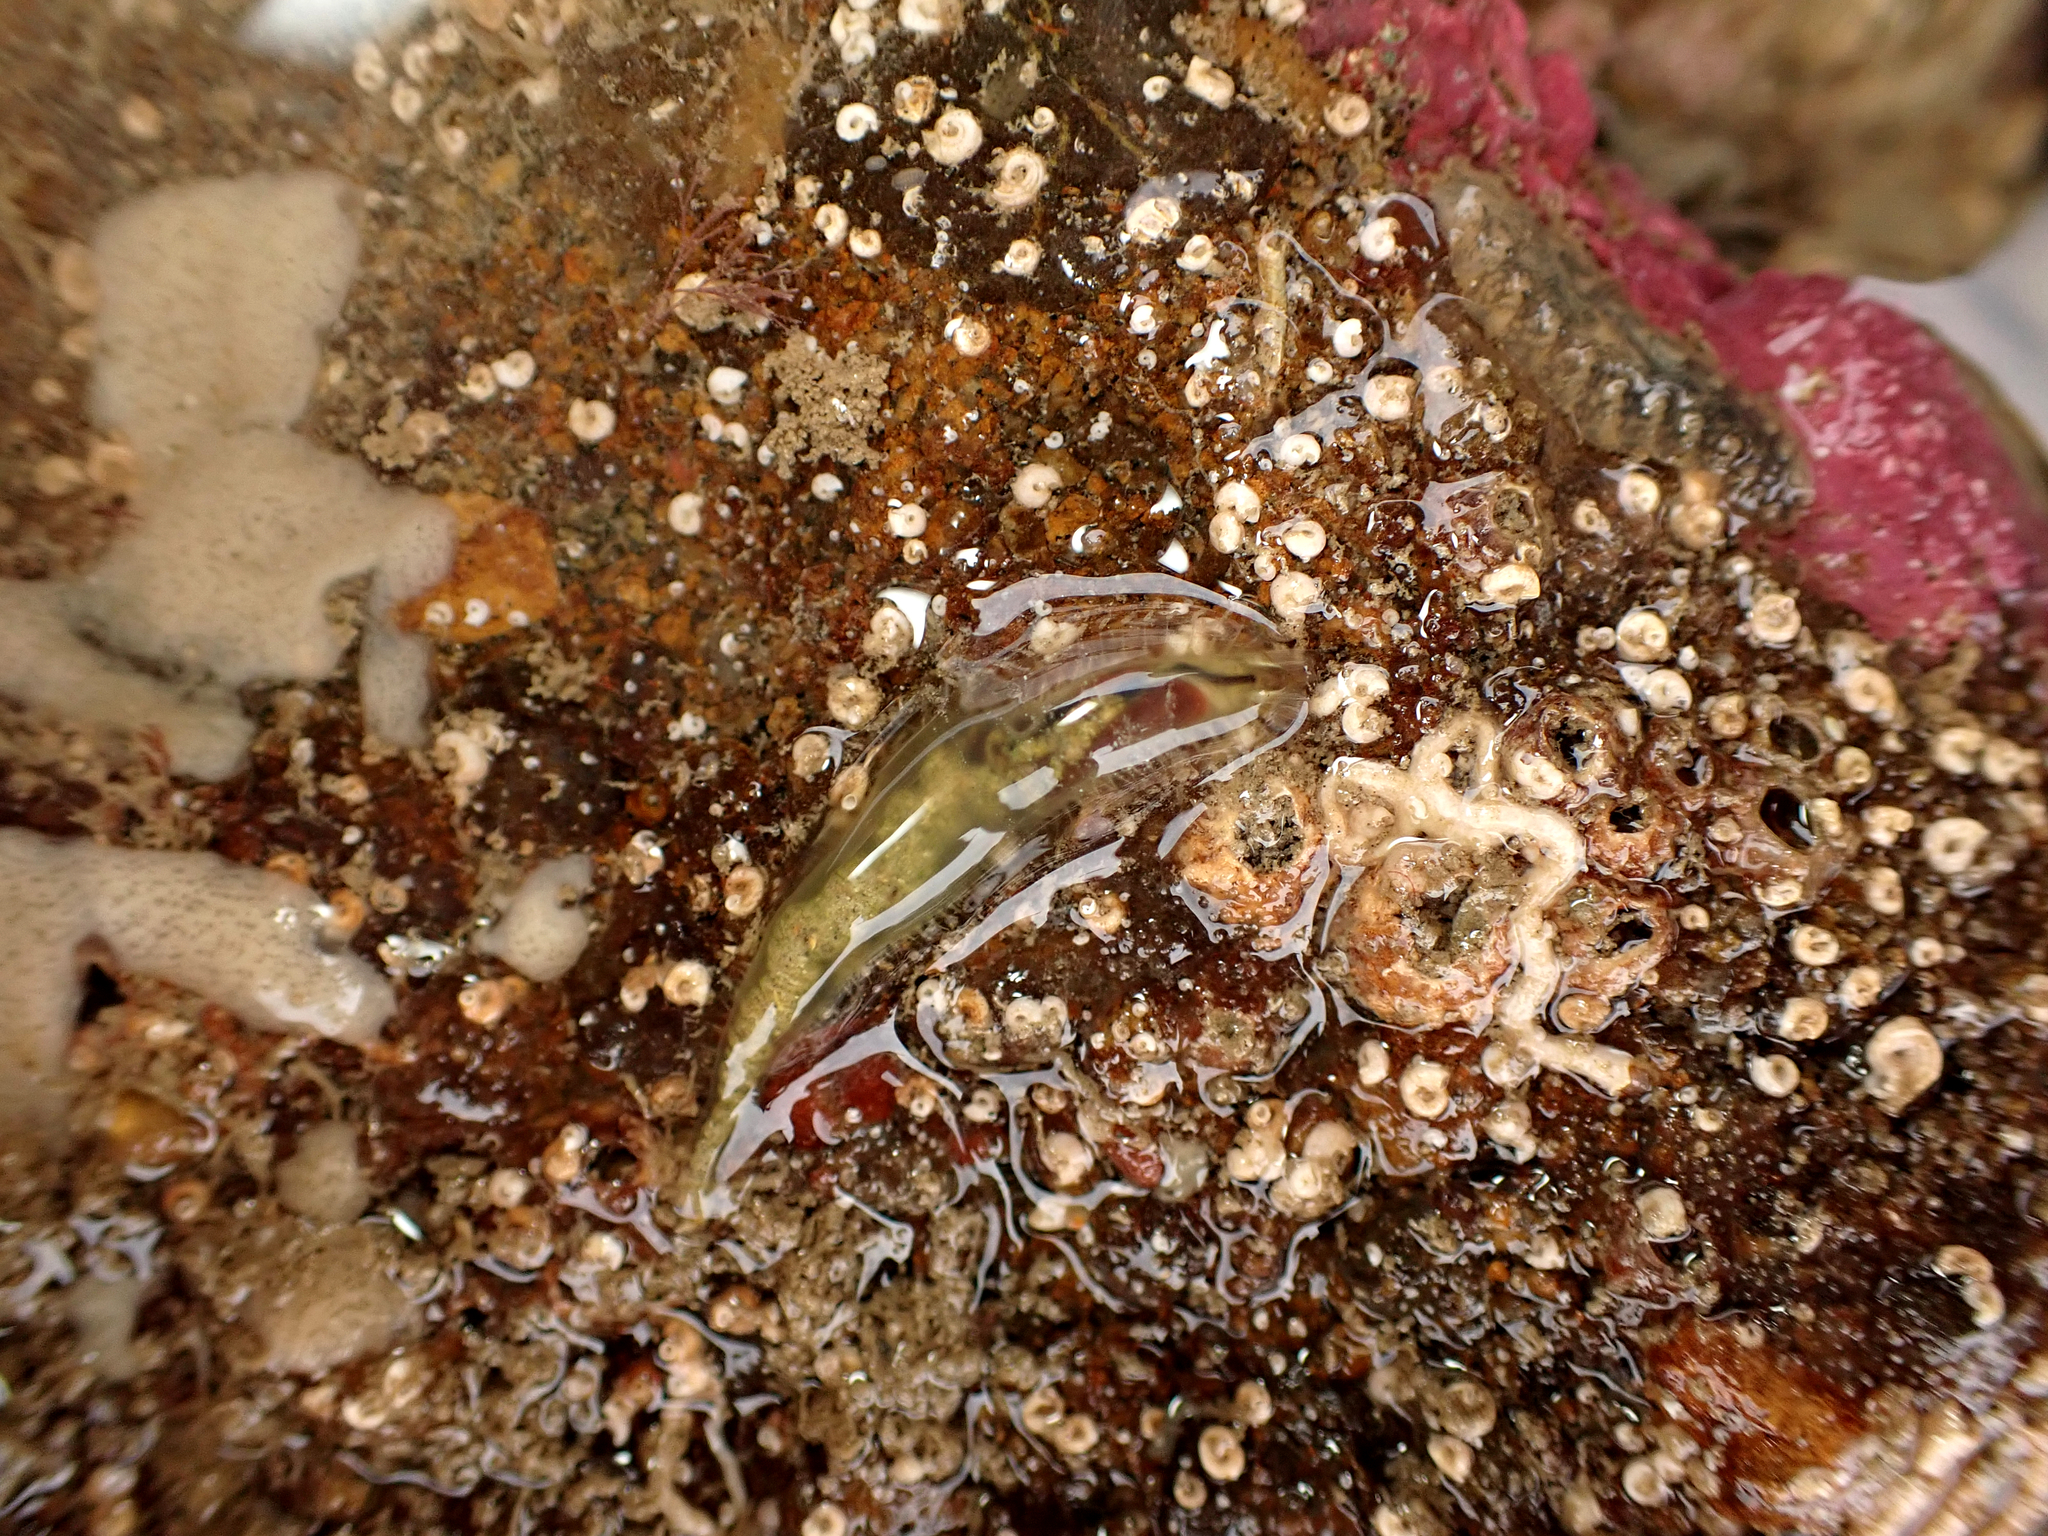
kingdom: Animalia
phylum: Annelida
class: Polychaeta
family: Flabelligeridae
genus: Flabelligera
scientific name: Flabelligera bicolor
